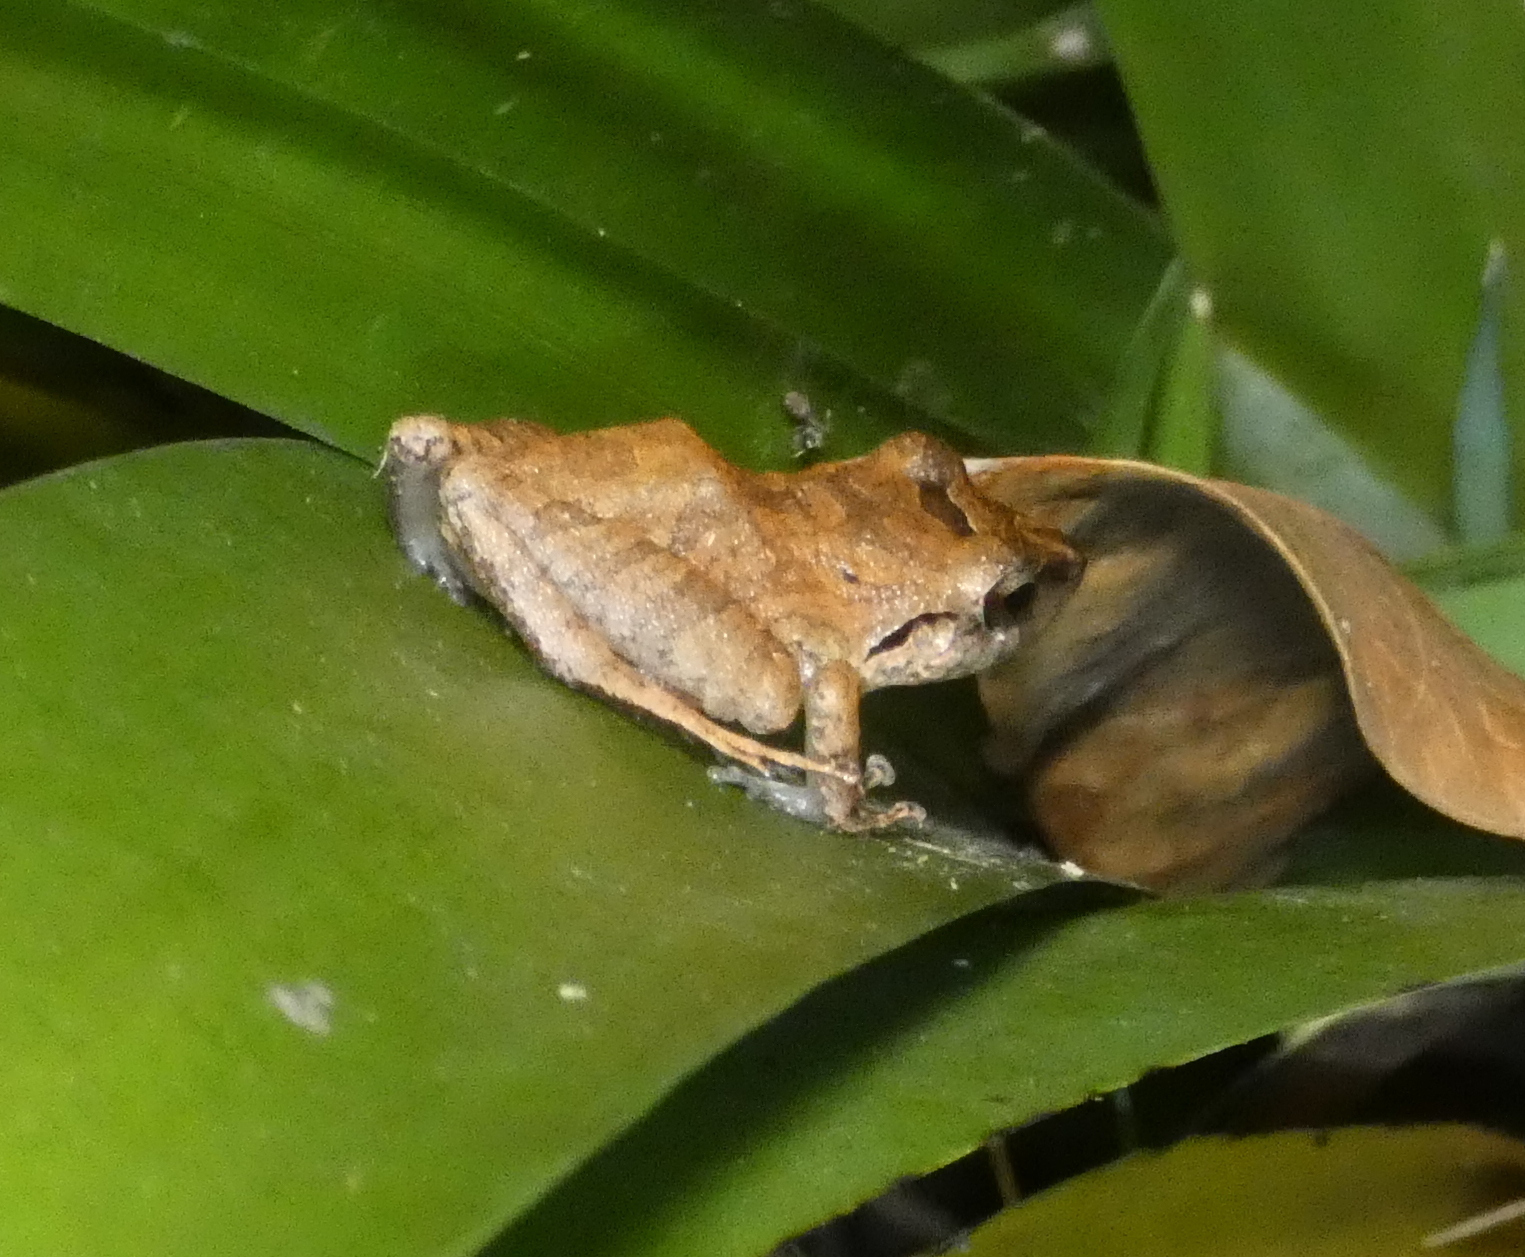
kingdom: Animalia
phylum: Chordata
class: Amphibia
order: Anura
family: Craugastoridae
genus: Pristimantis
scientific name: Pristimantis ramagii
